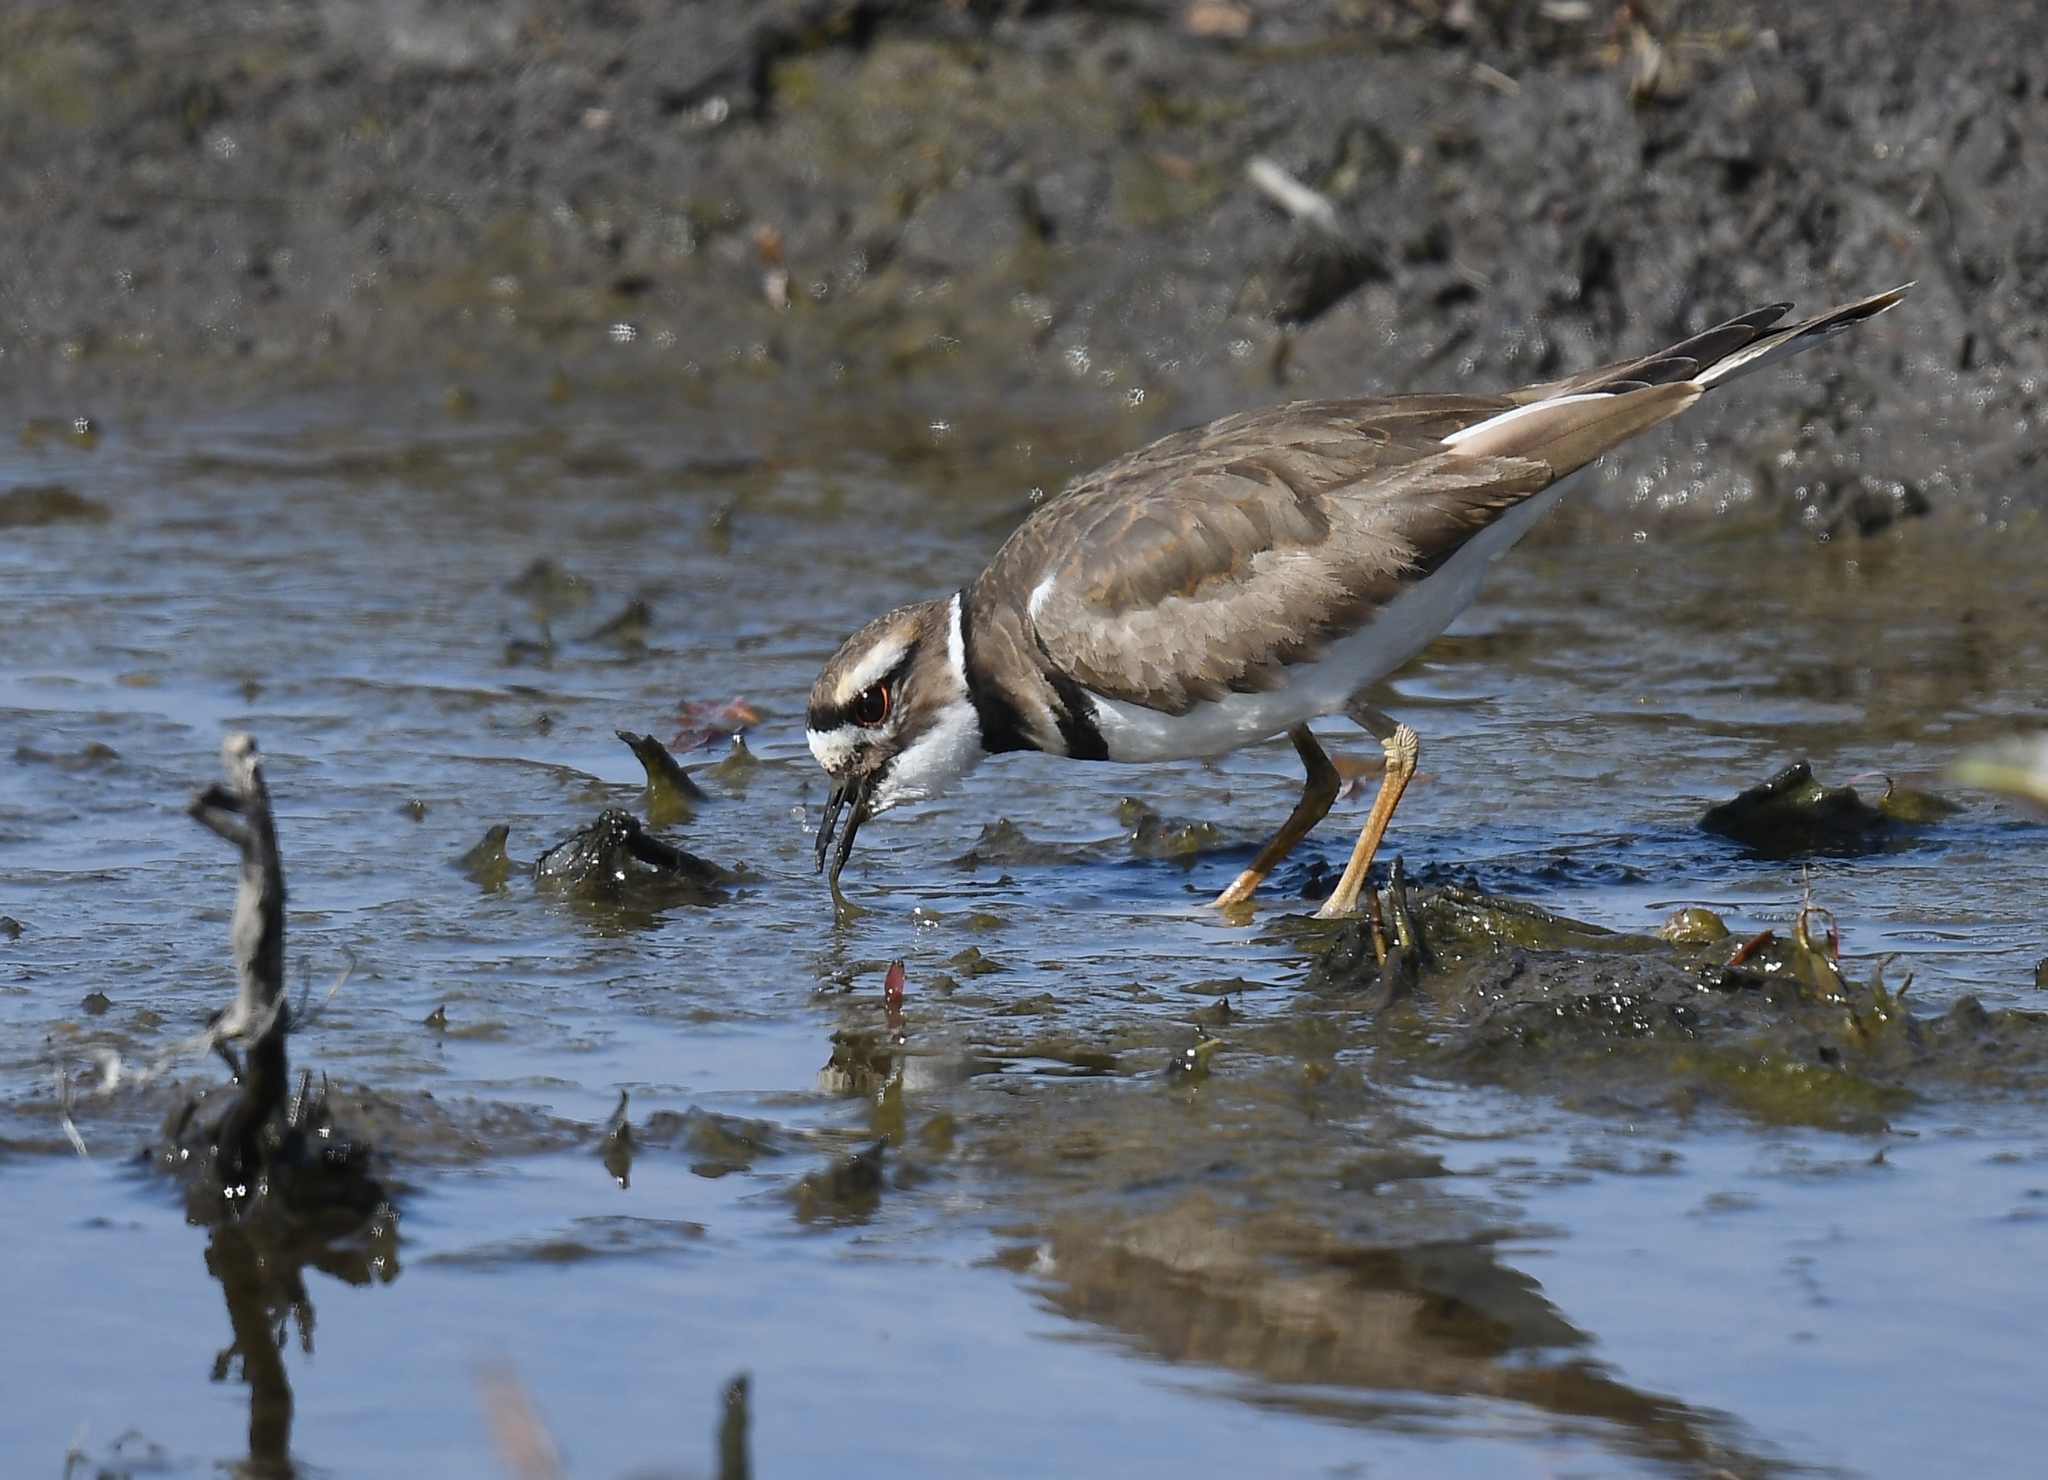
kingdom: Animalia
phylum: Chordata
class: Aves
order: Charadriiformes
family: Charadriidae
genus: Charadrius
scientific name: Charadrius vociferus
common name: Killdeer
